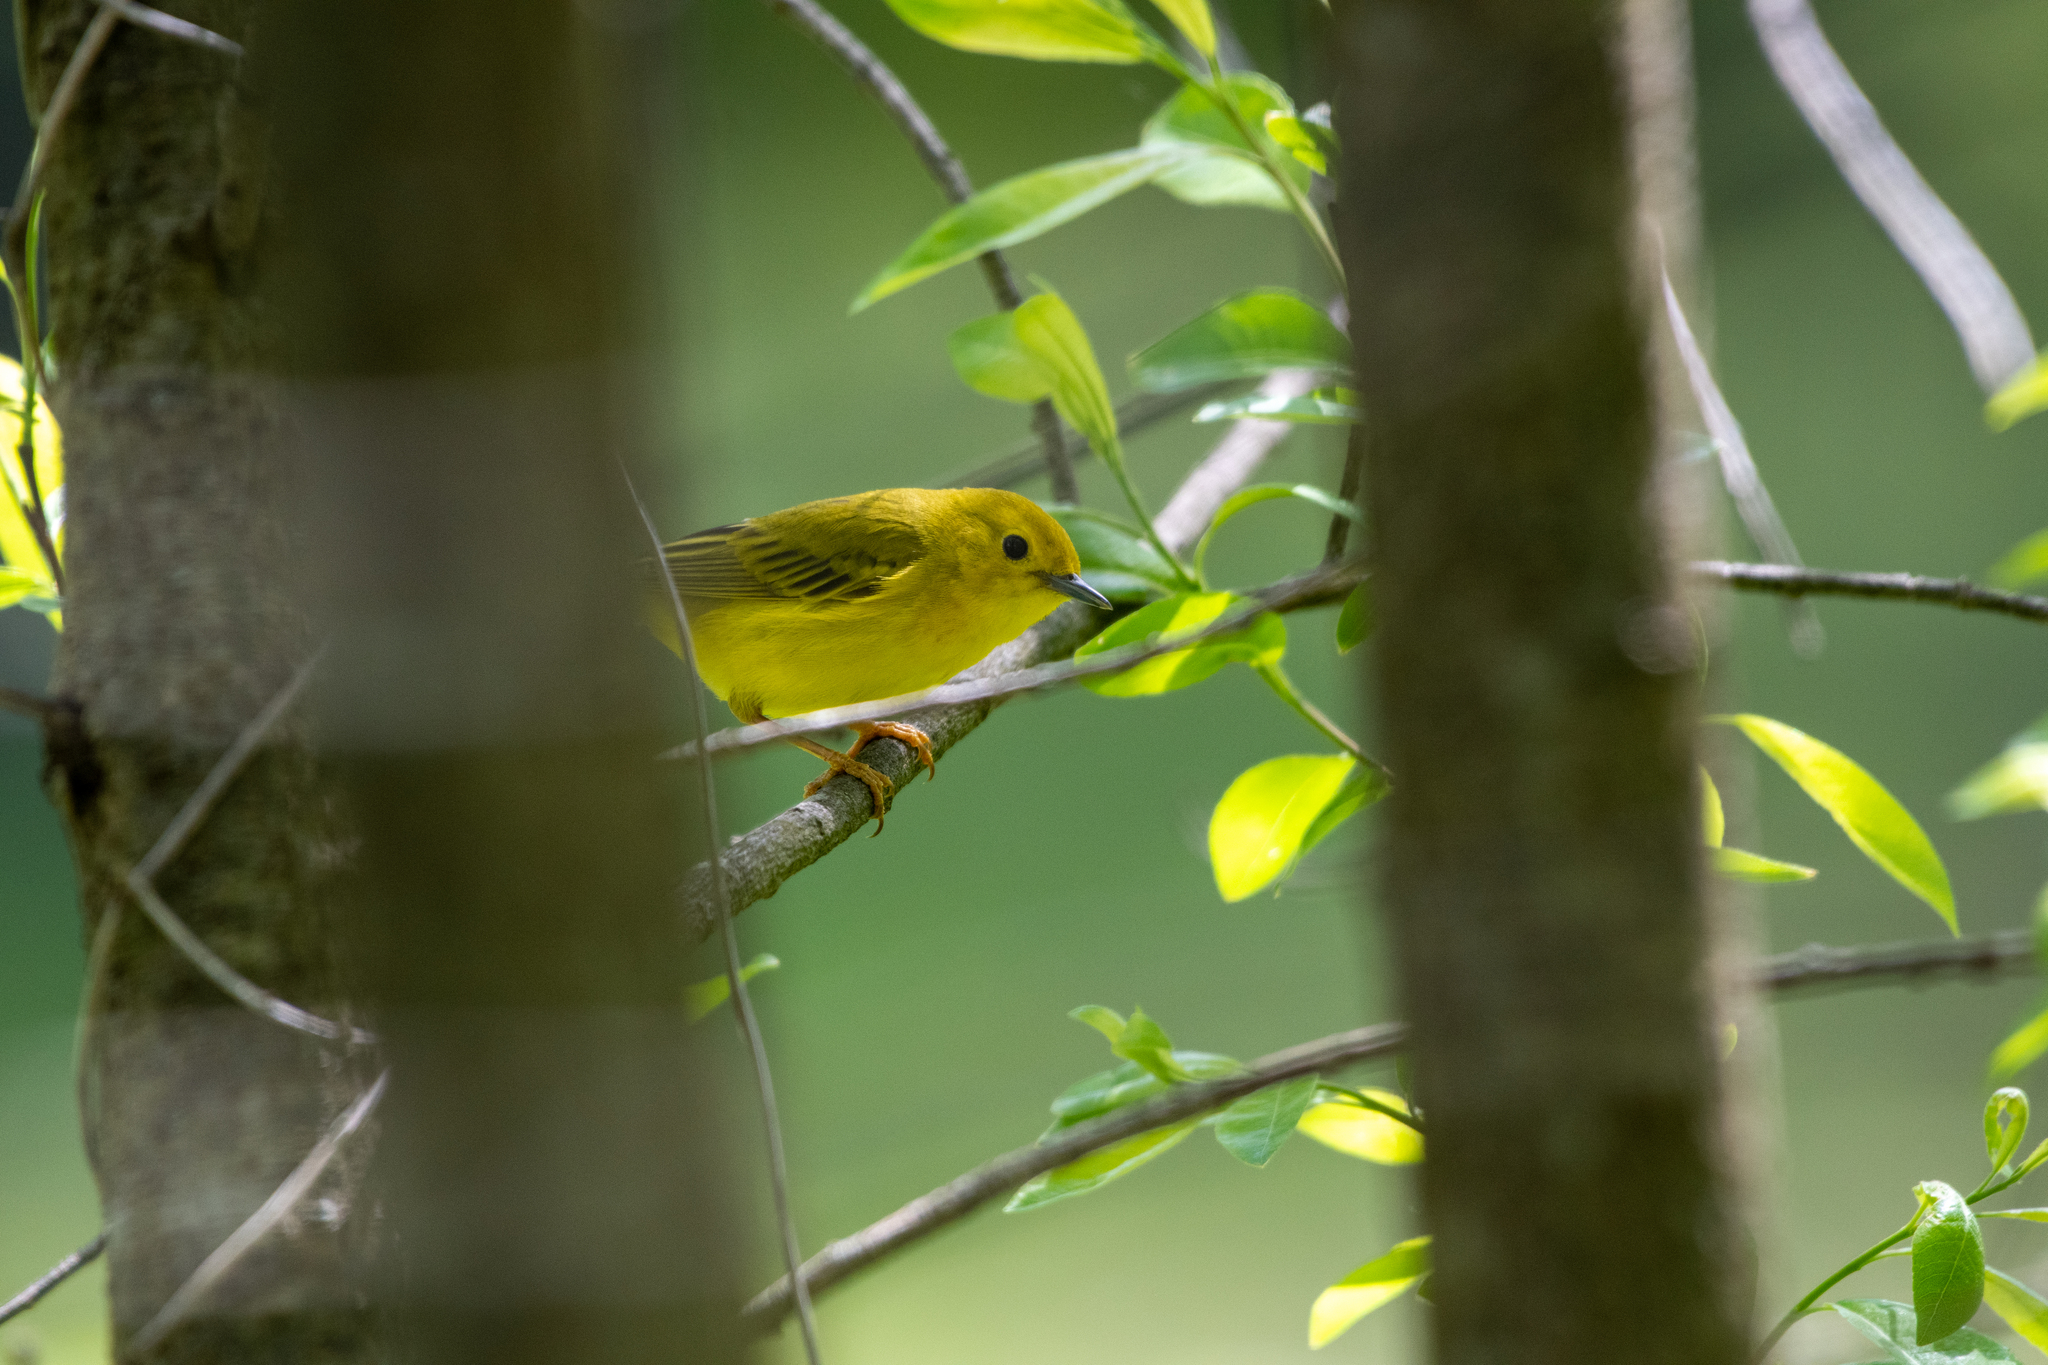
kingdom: Animalia
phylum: Chordata
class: Aves
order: Passeriformes
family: Parulidae
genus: Setophaga
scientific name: Setophaga petechia
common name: Yellow warbler
